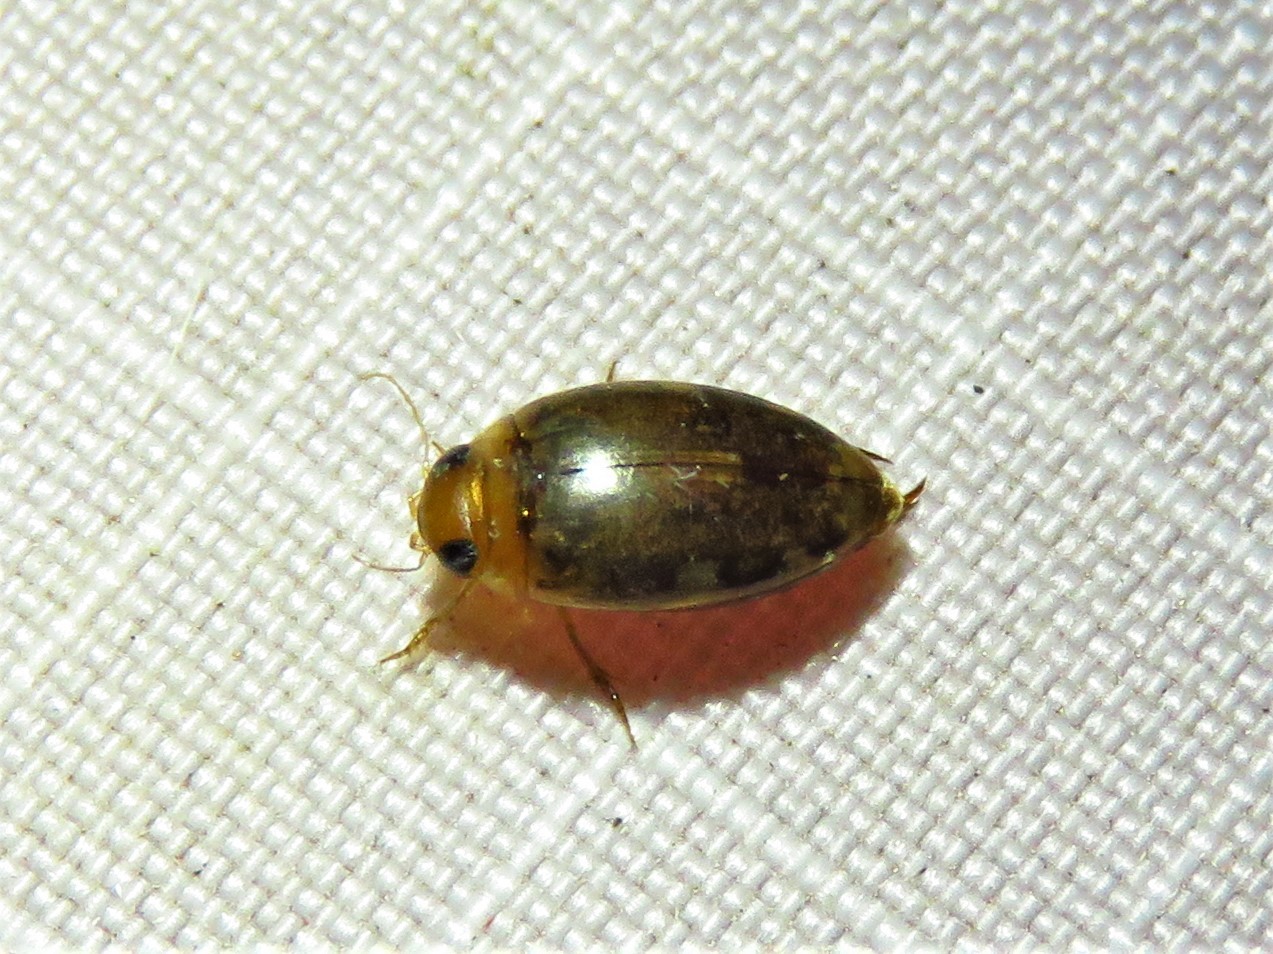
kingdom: Animalia
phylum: Arthropoda
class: Insecta
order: Coleoptera
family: Dytiscidae
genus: Laccophilus
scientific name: Laccophilus proximus
